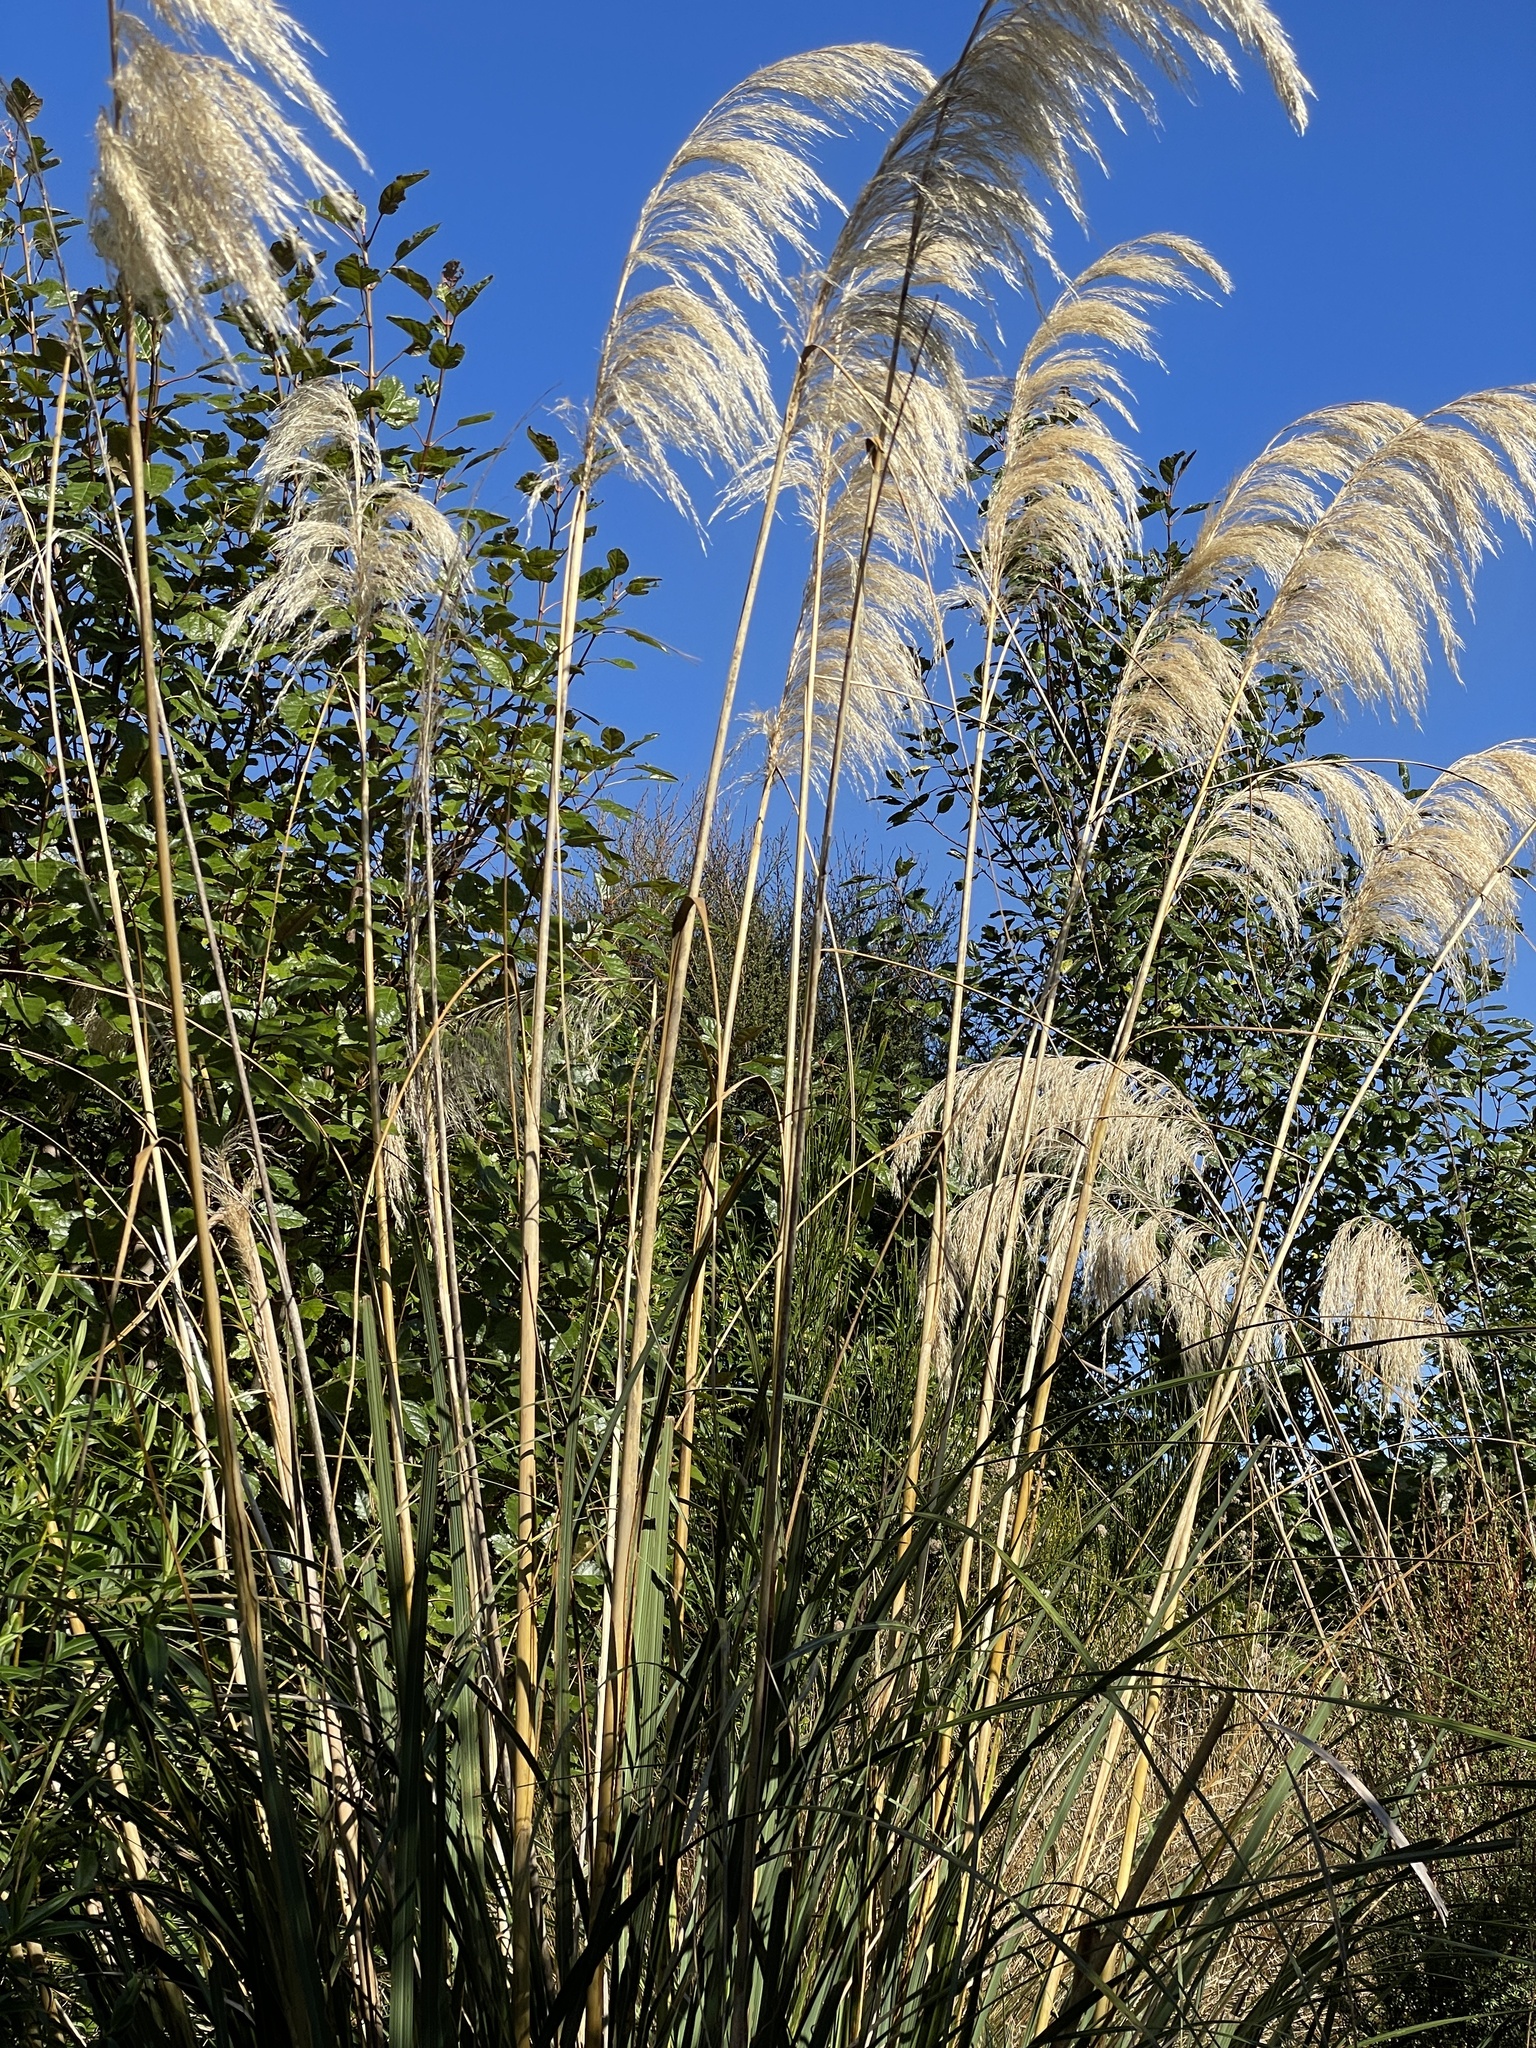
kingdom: Plantae
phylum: Tracheophyta
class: Liliopsida
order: Poales
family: Poaceae
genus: Austroderia
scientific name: Austroderia richardii
